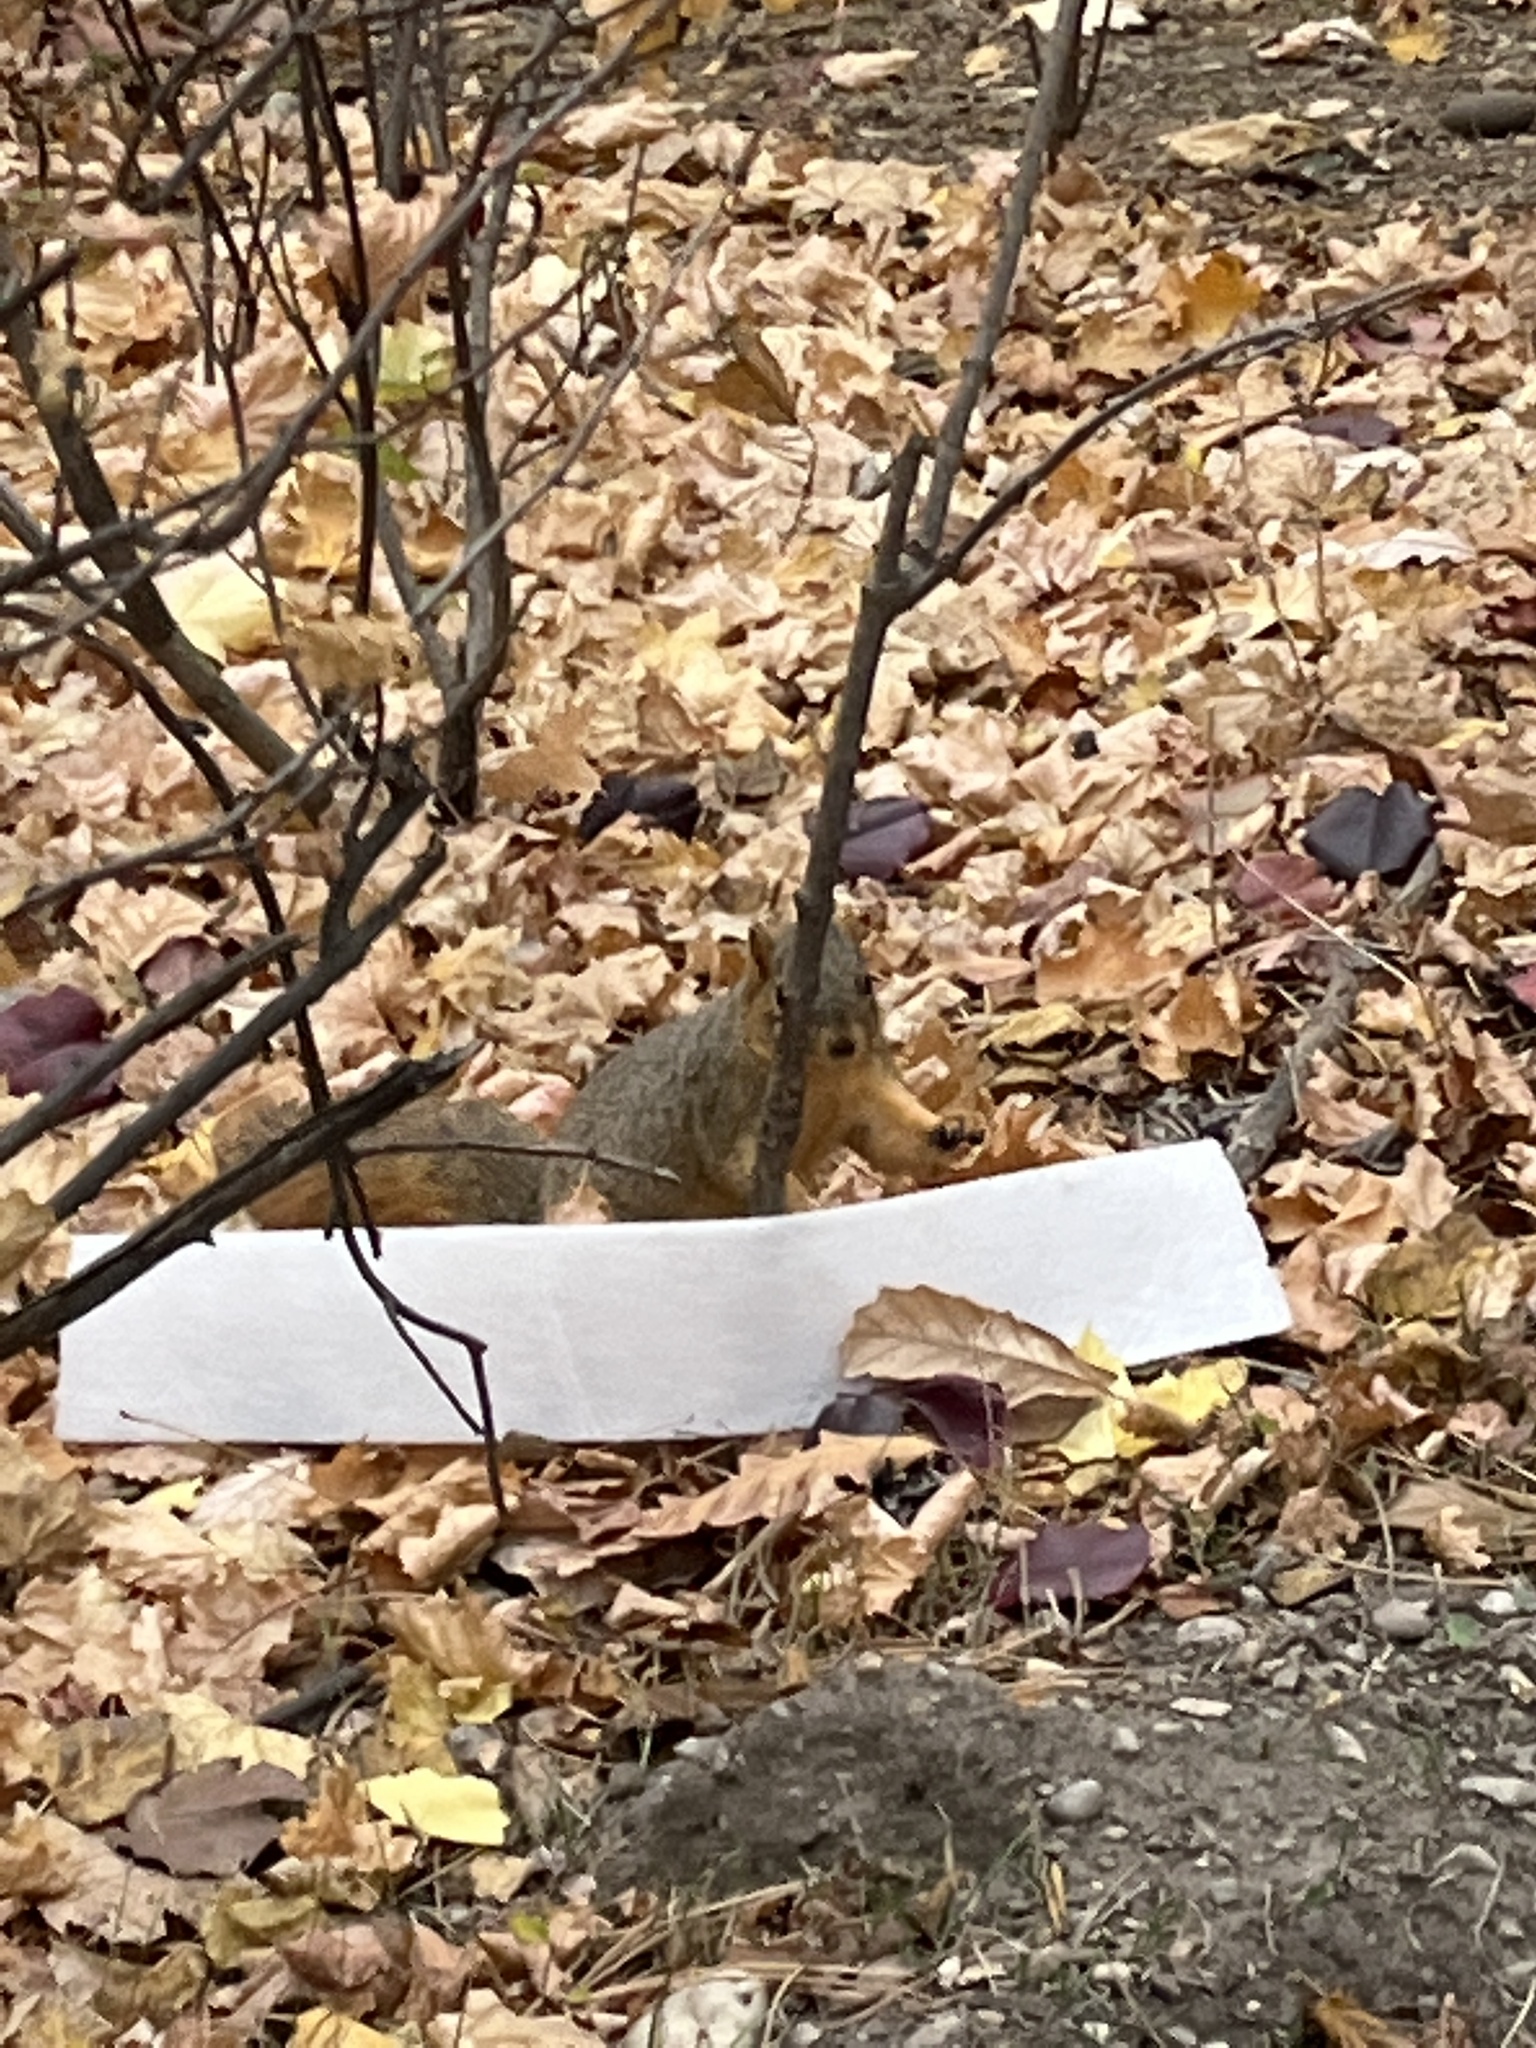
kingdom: Animalia
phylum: Chordata
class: Mammalia
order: Rodentia
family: Sciuridae
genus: Sciurus
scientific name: Sciurus niger
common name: Fox squirrel
